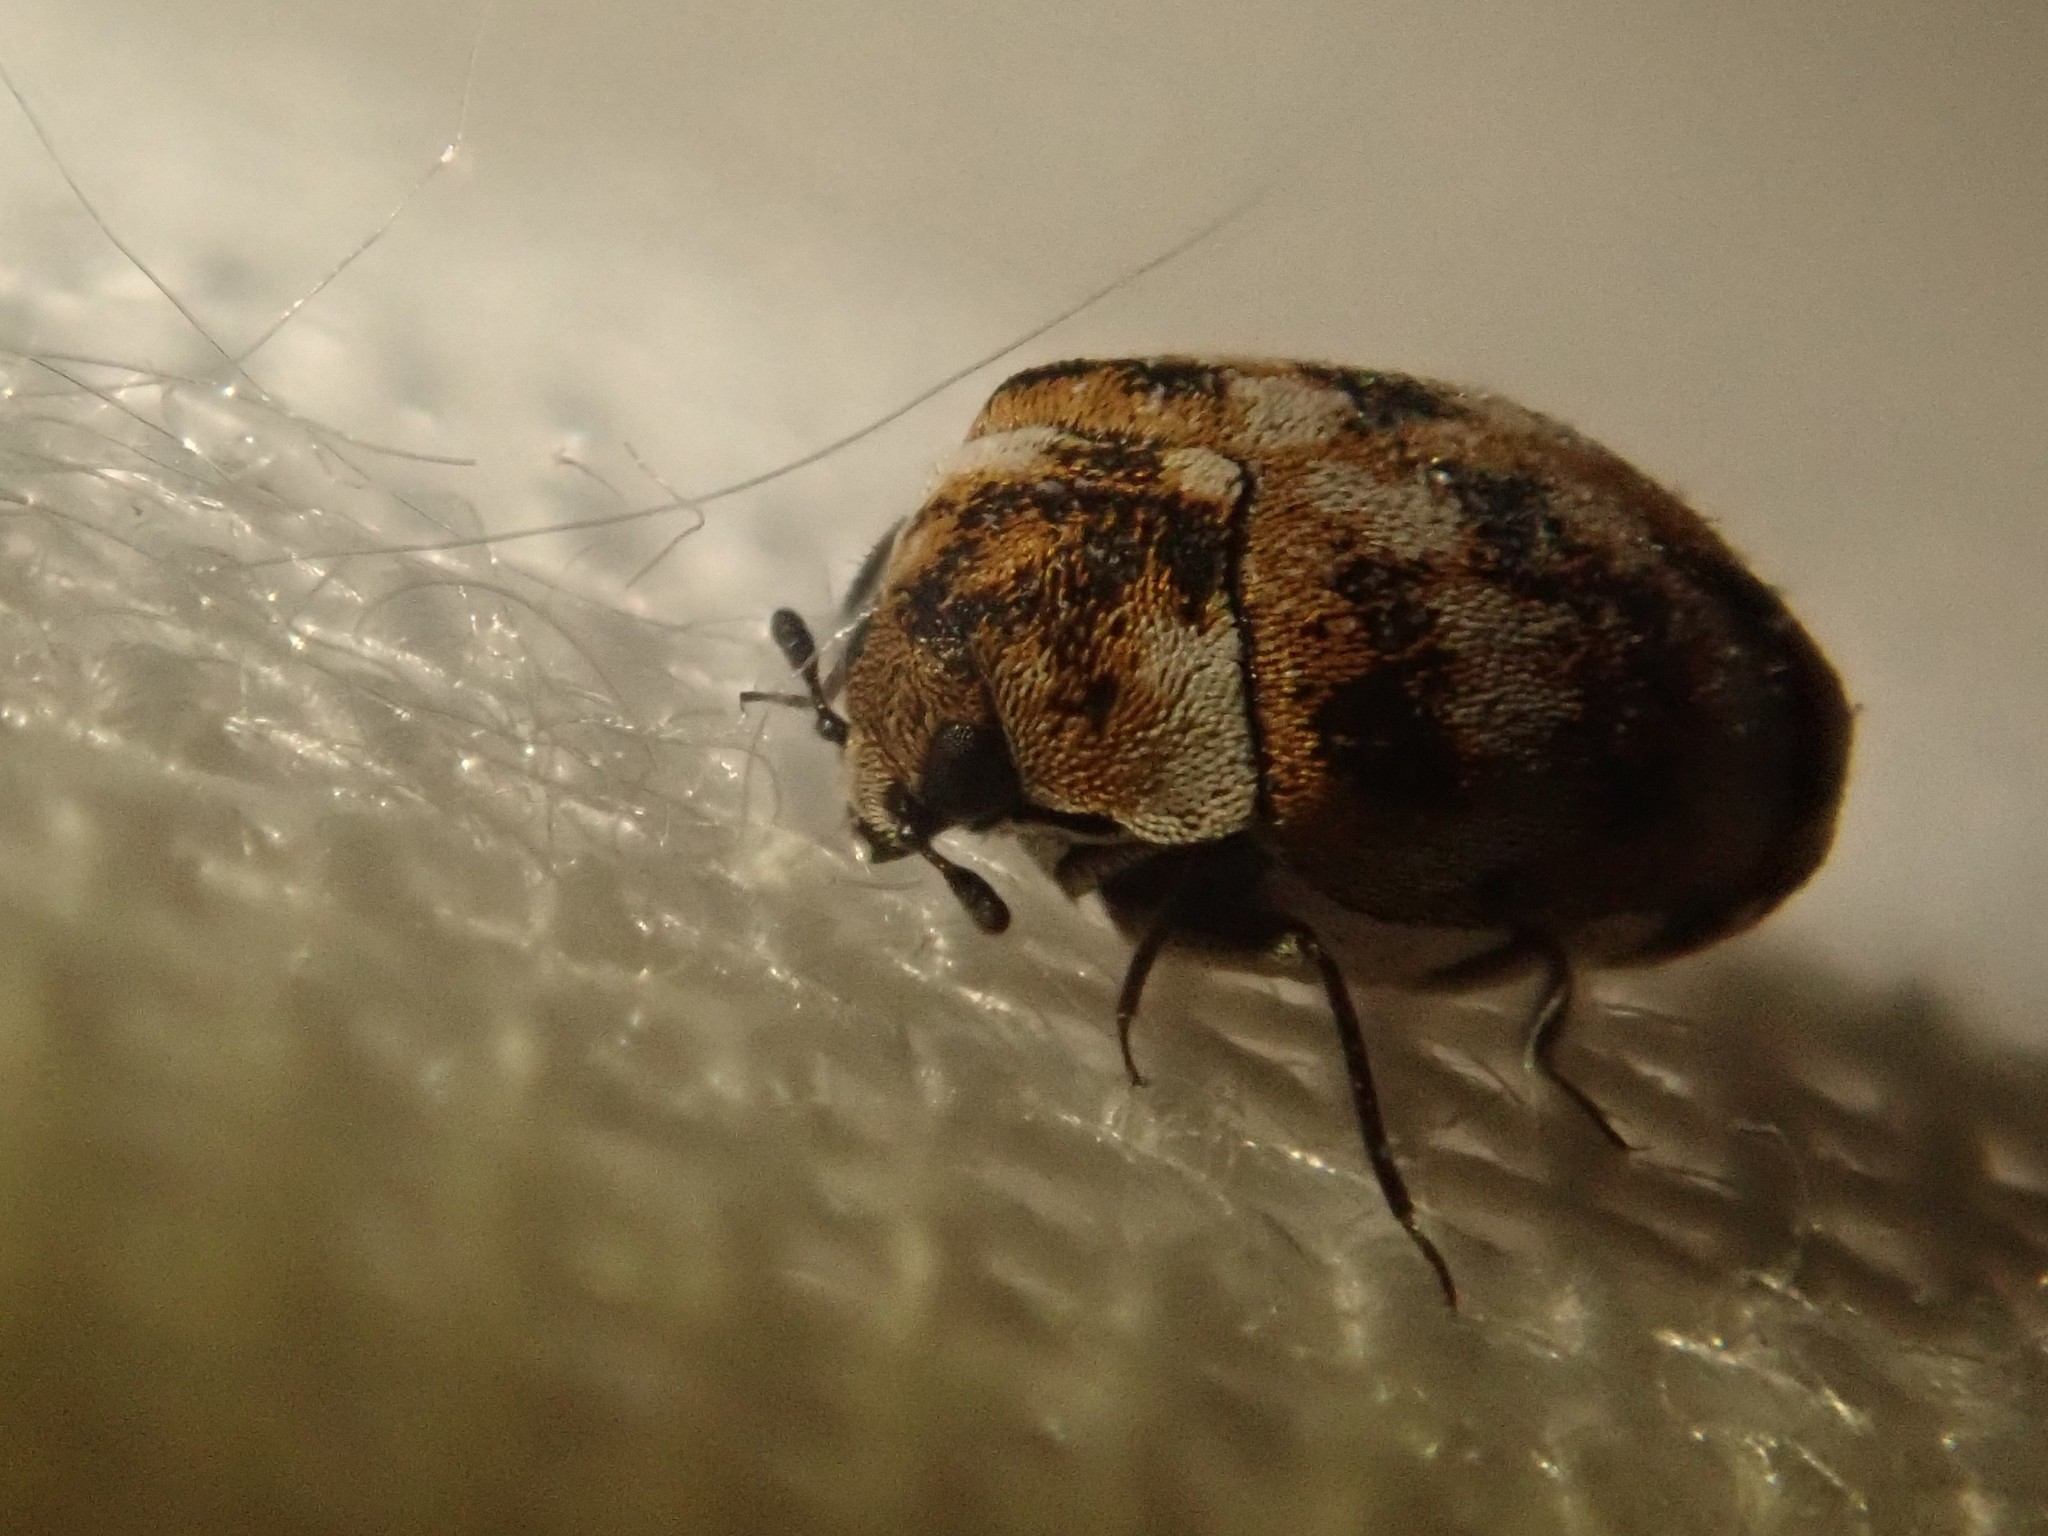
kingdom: Animalia
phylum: Arthropoda
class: Insecta
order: Coleoptera
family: Dermestidae
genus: Anthrenus
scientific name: Anthrenus verbasci
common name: Varied carpet beetle
